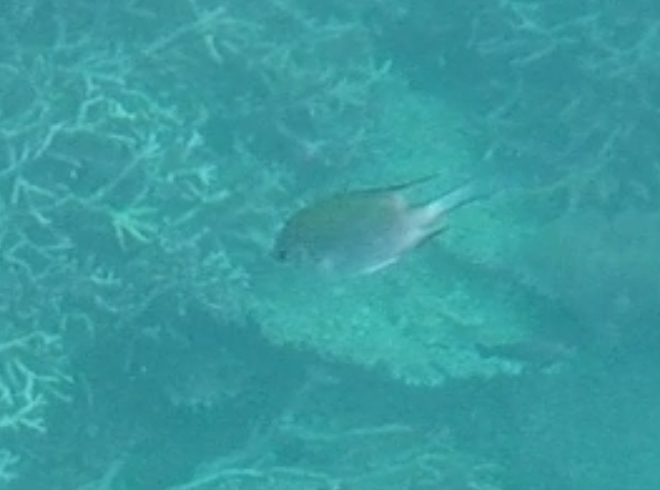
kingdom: Animalia
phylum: Chordata
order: Perciformes
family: Pomacentridae
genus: Amblyglyphidodon
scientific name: Amblyglyphidodon indicus
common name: Maldives damselfish
